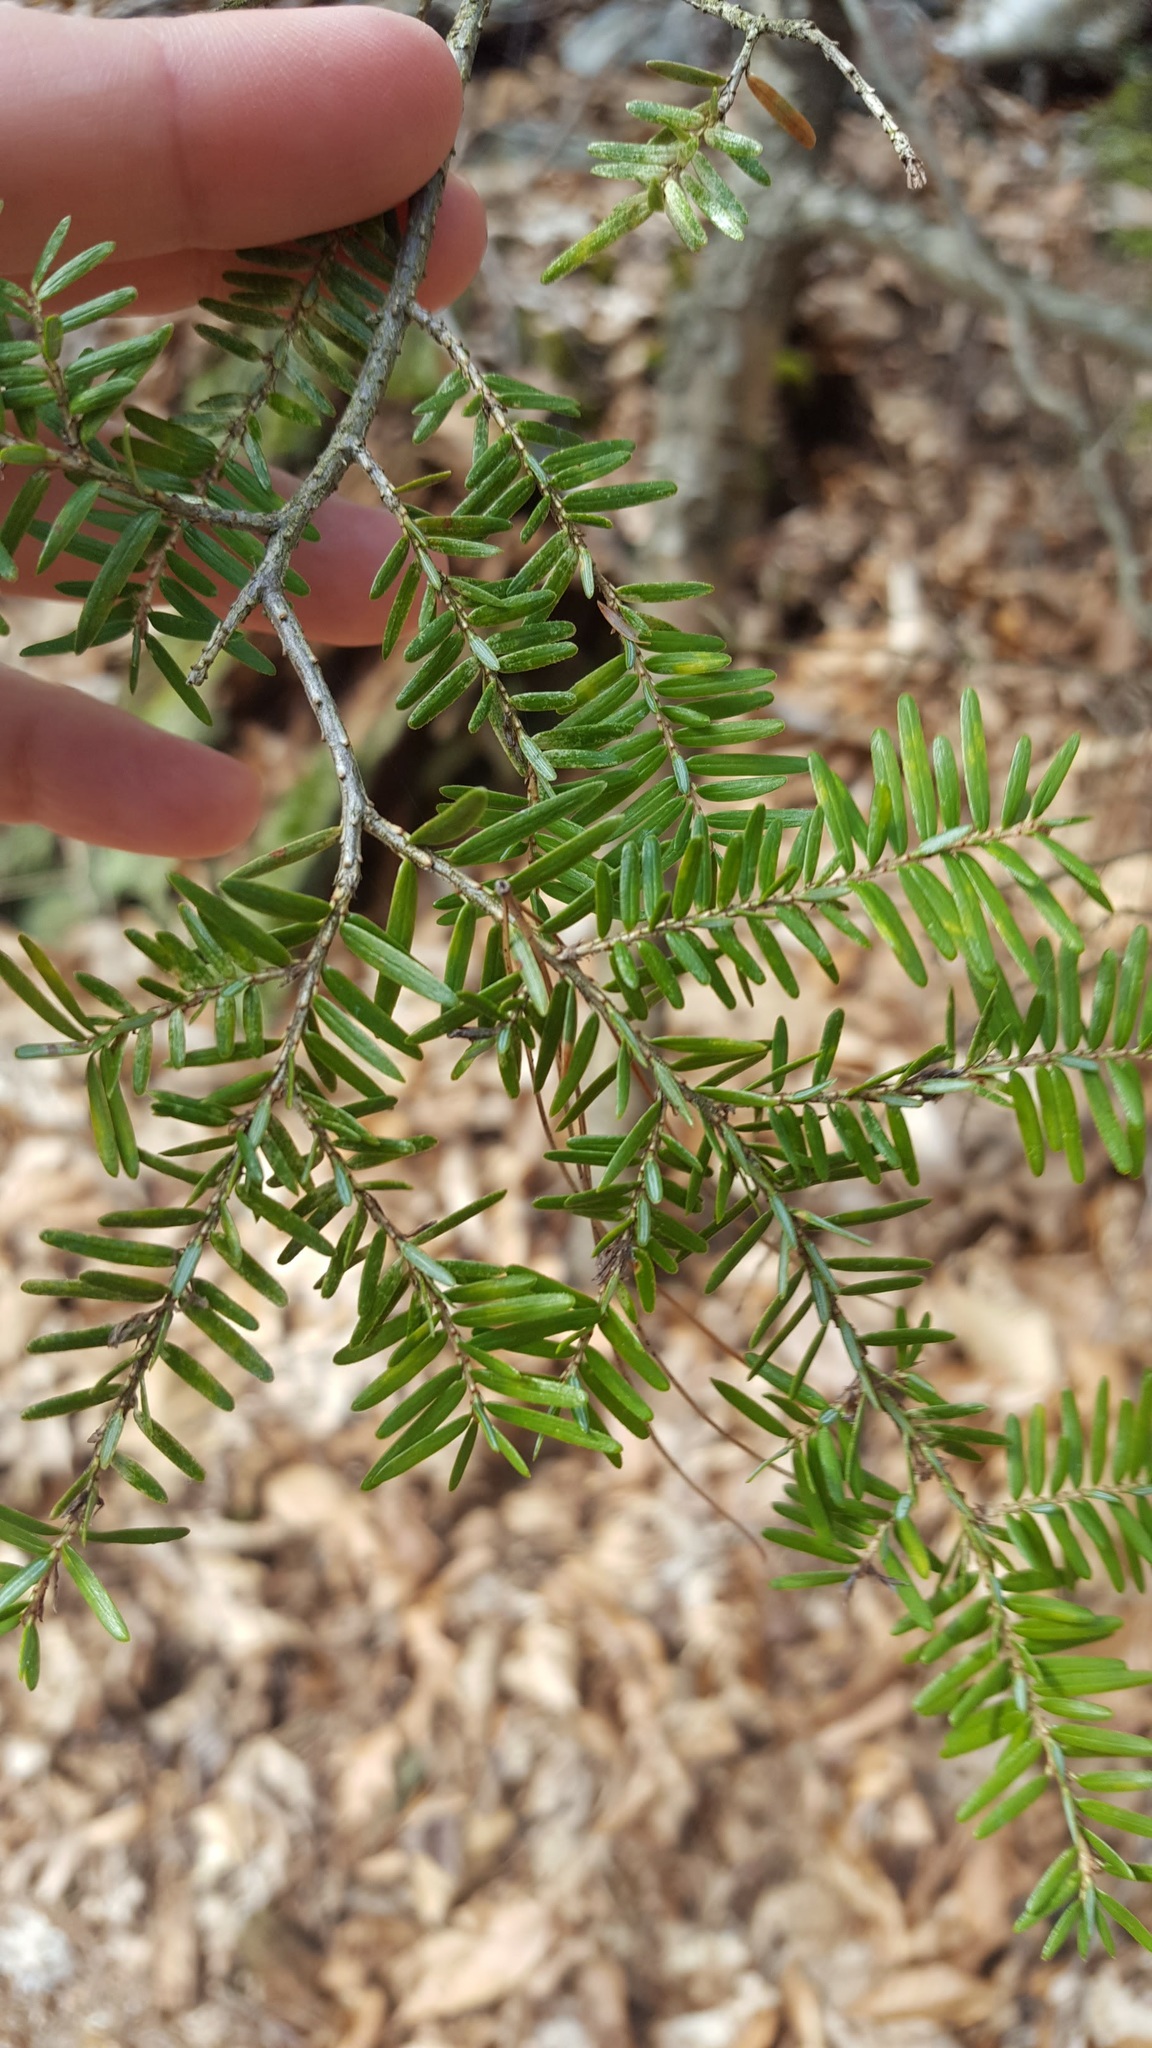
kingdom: Plantae
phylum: Tracheophyta
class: Pinopsida
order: Pinales
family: Pinaceae
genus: Tsuga
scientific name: Tsuga canadensis
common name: Eastern hemlock
